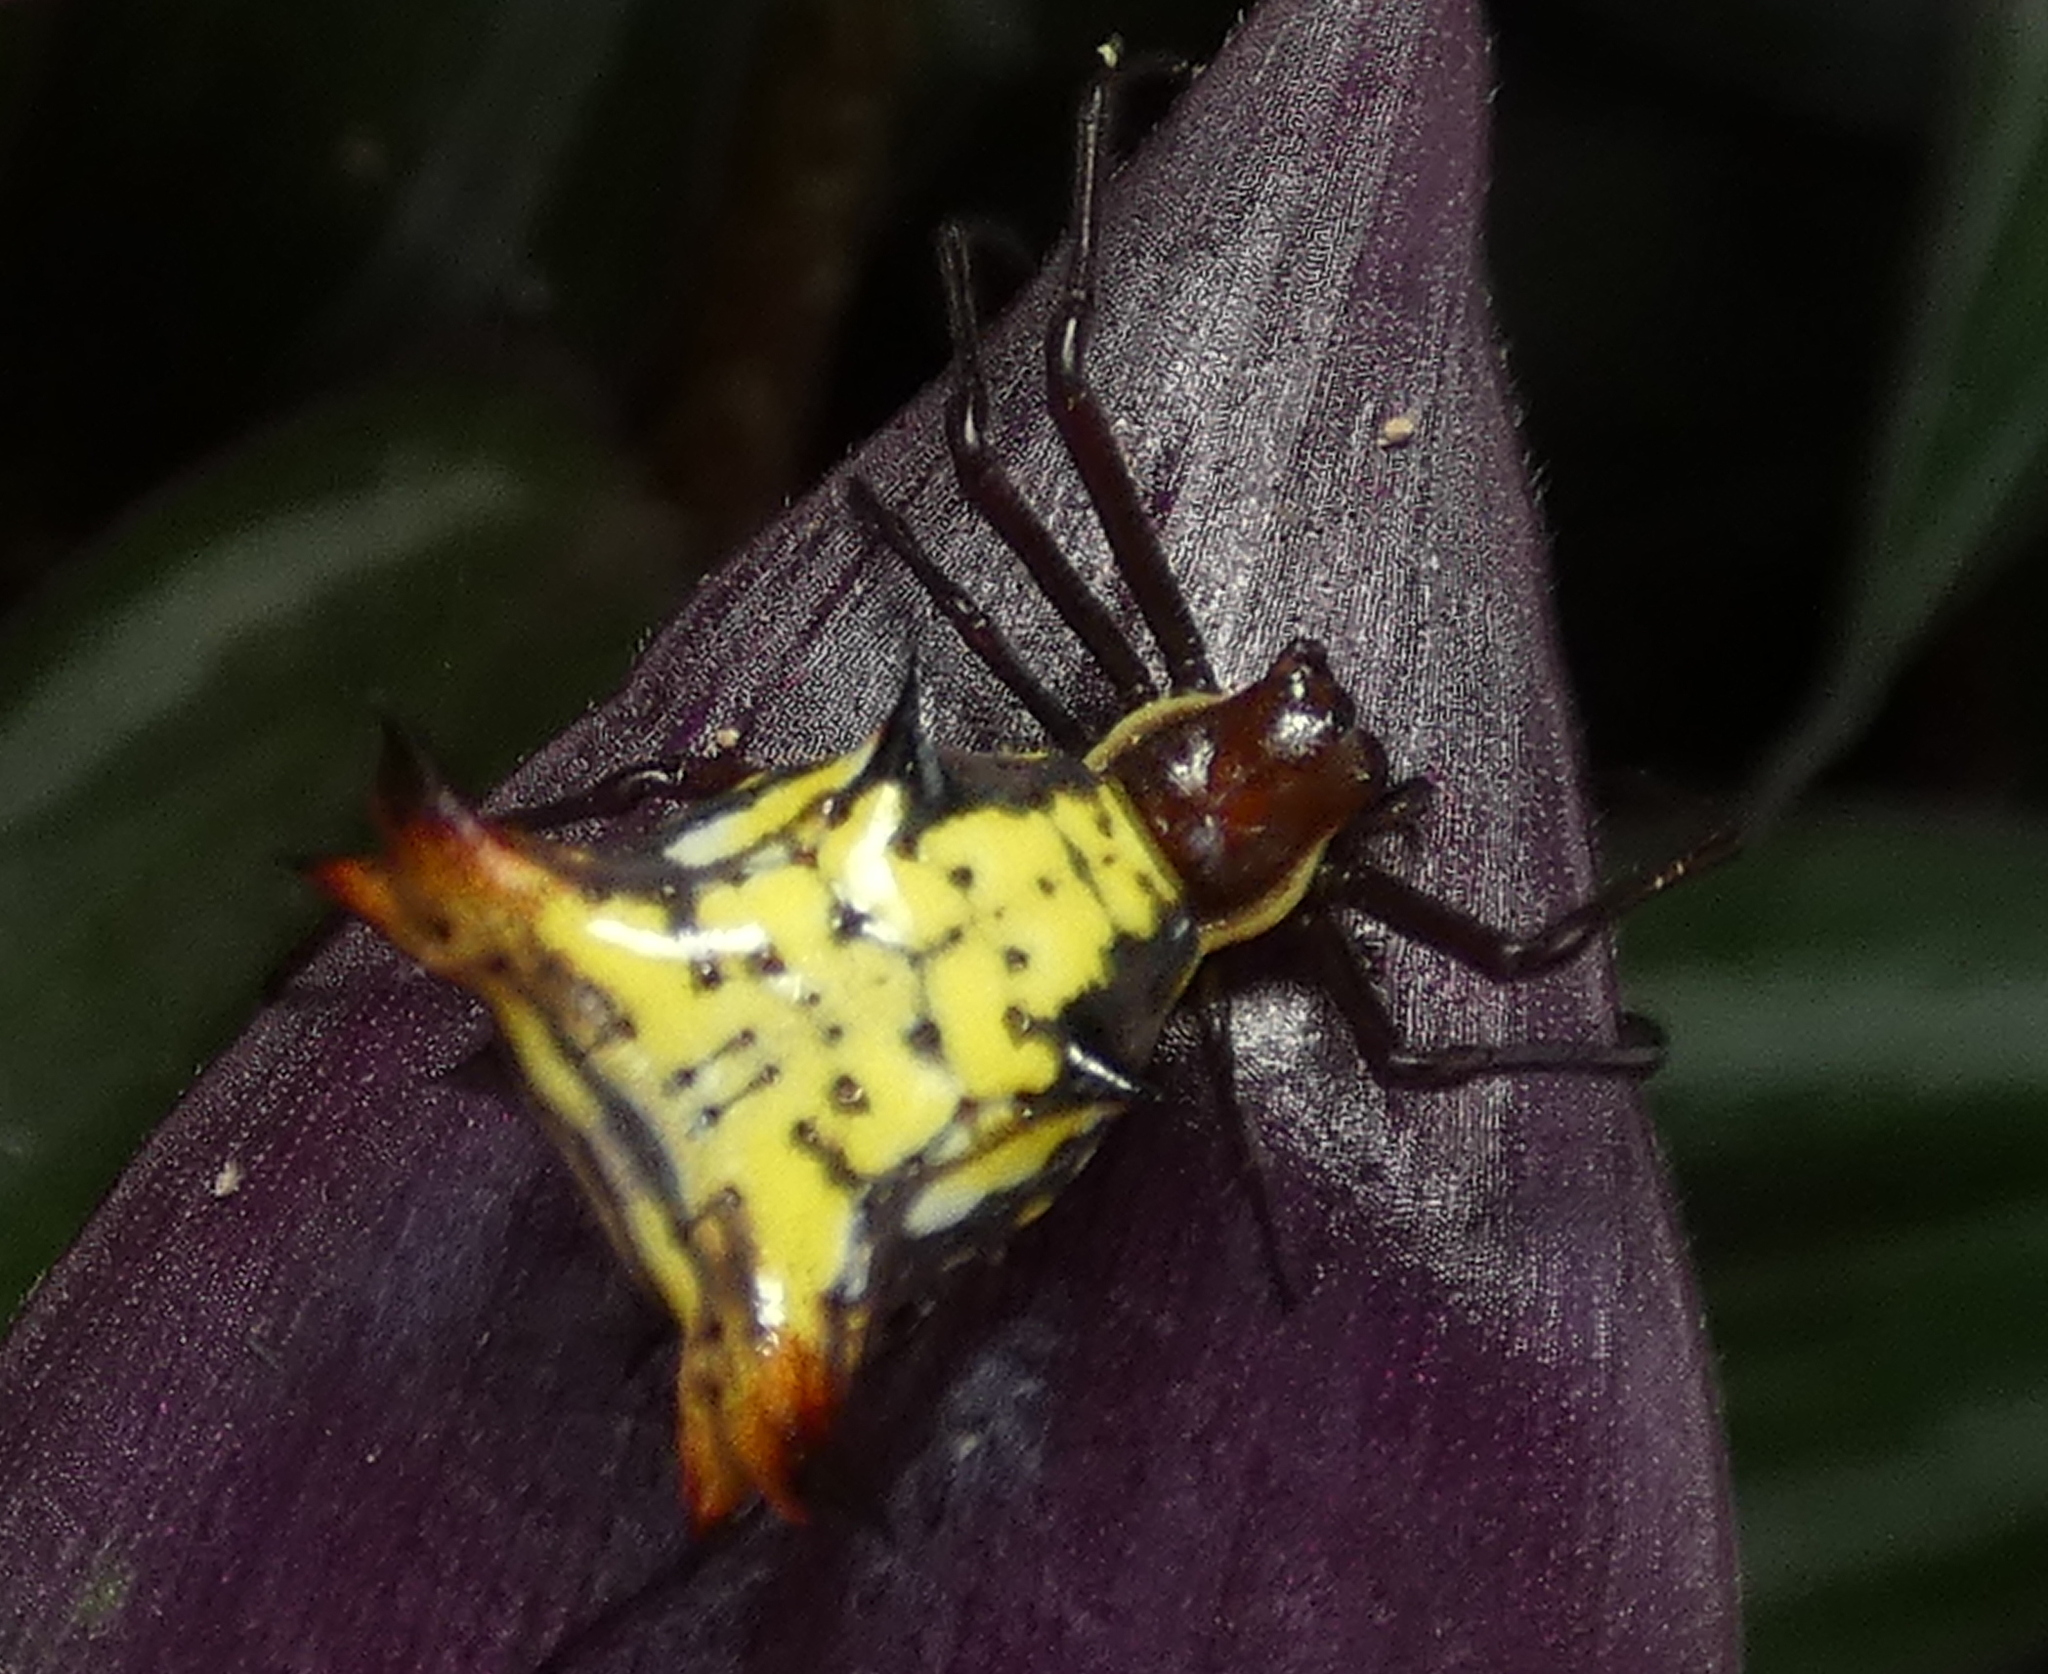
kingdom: Animalia
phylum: Arthropoda
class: Arachnida
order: Araneae
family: Araneidae
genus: Micrathena
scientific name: Micrathena fissispina
